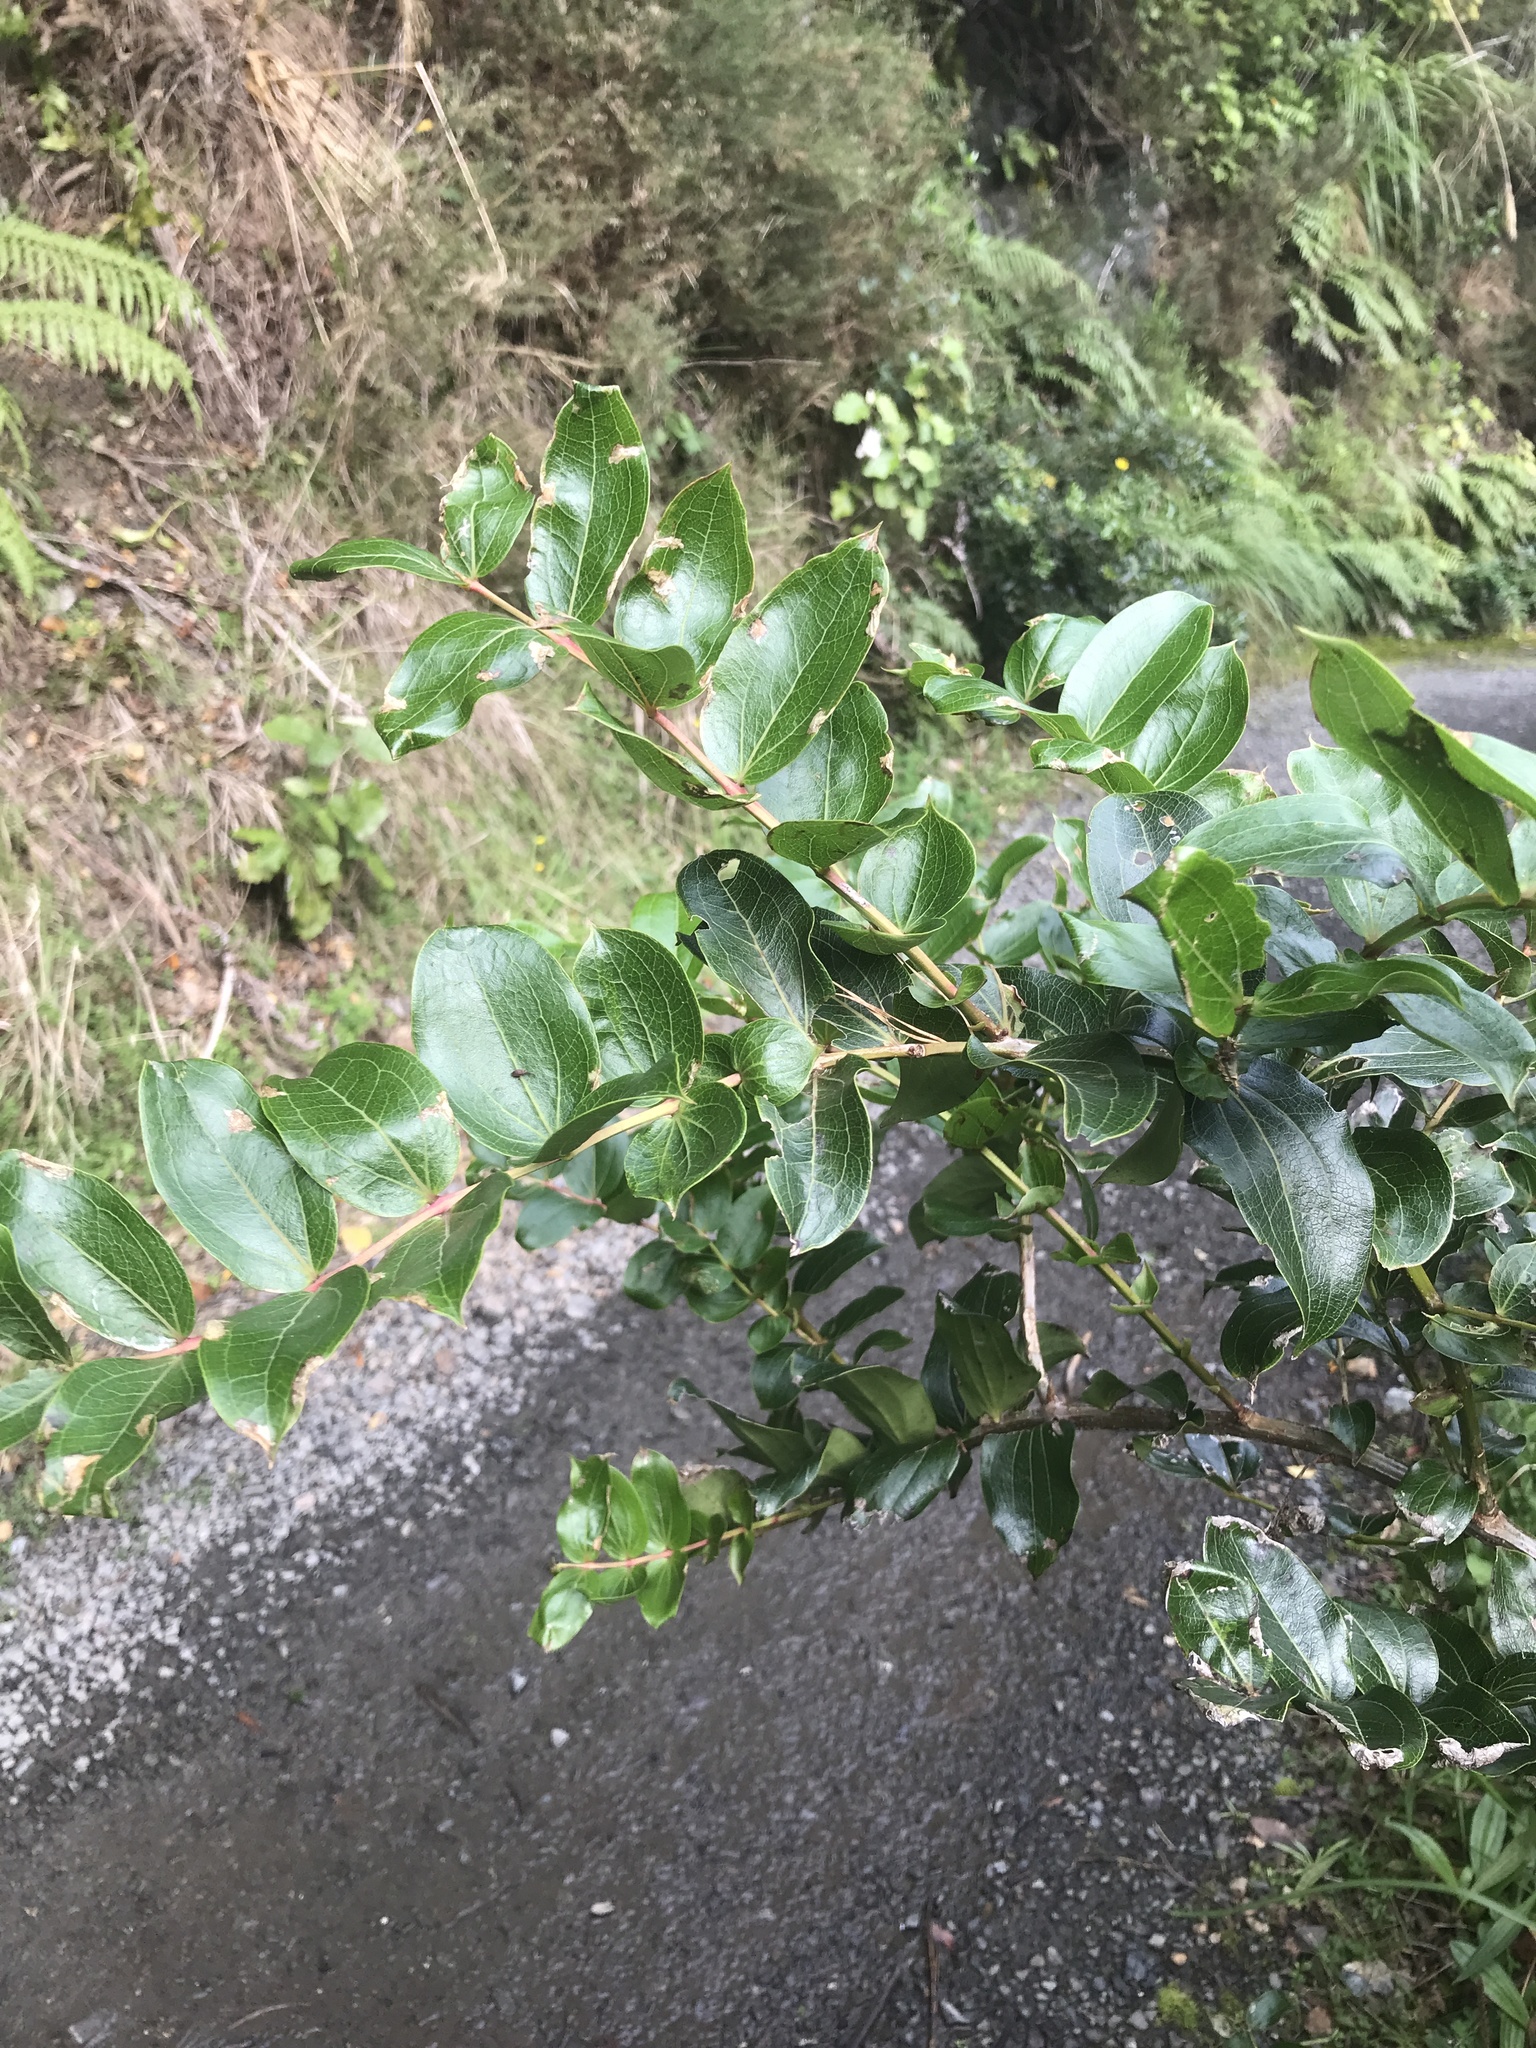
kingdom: Plantae
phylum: Tracheophyta
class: Magnoliopsida
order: Cucurbitales
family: Coriariaceae
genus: Coriaria
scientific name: Coriaria arborea
